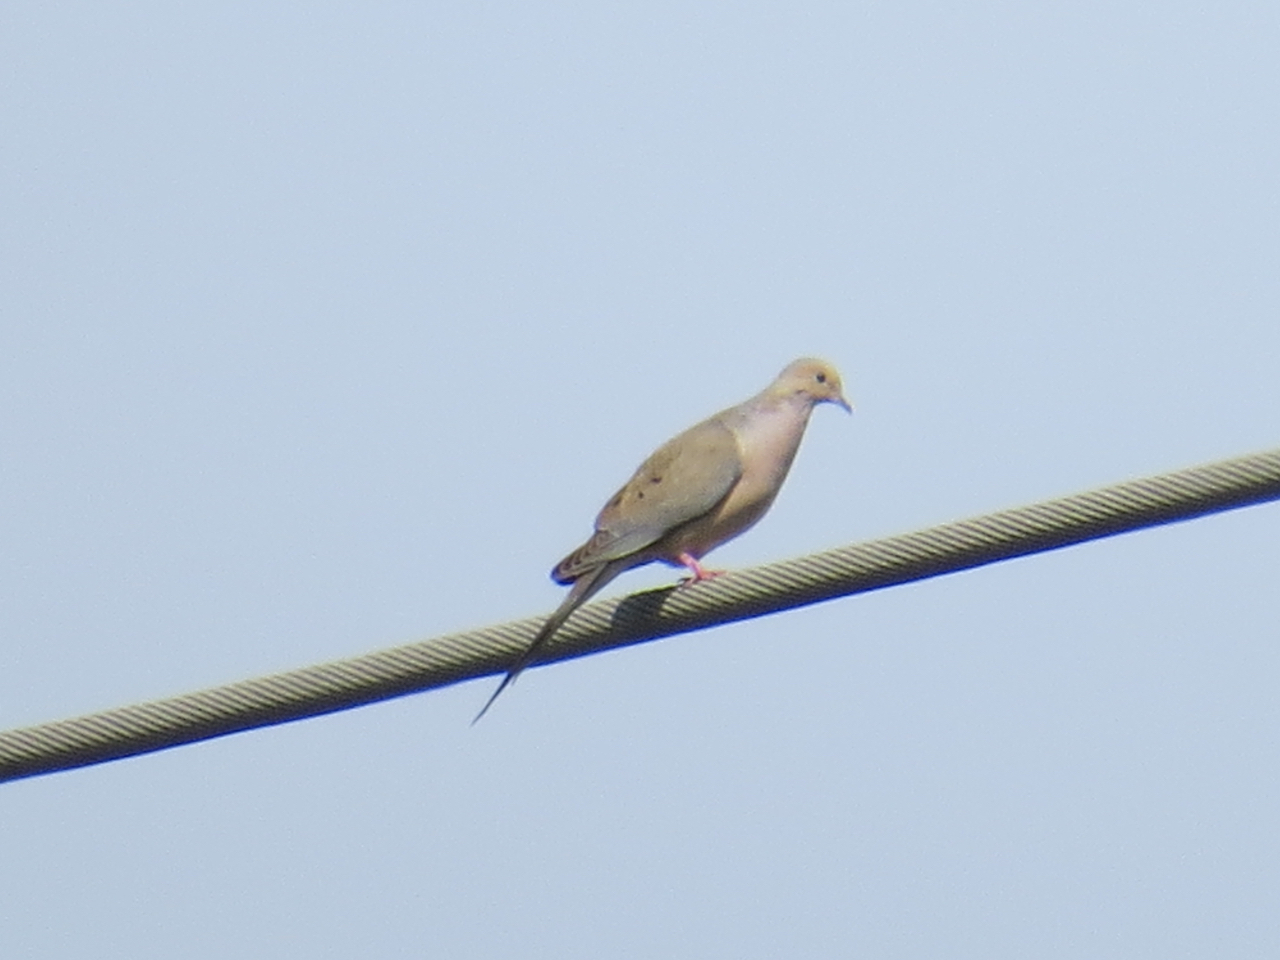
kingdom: Animalia
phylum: Chordata
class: Aves
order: Columbiformes
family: Columbidae
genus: Zenaida
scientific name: Zenaida macroura
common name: Mourning dove
